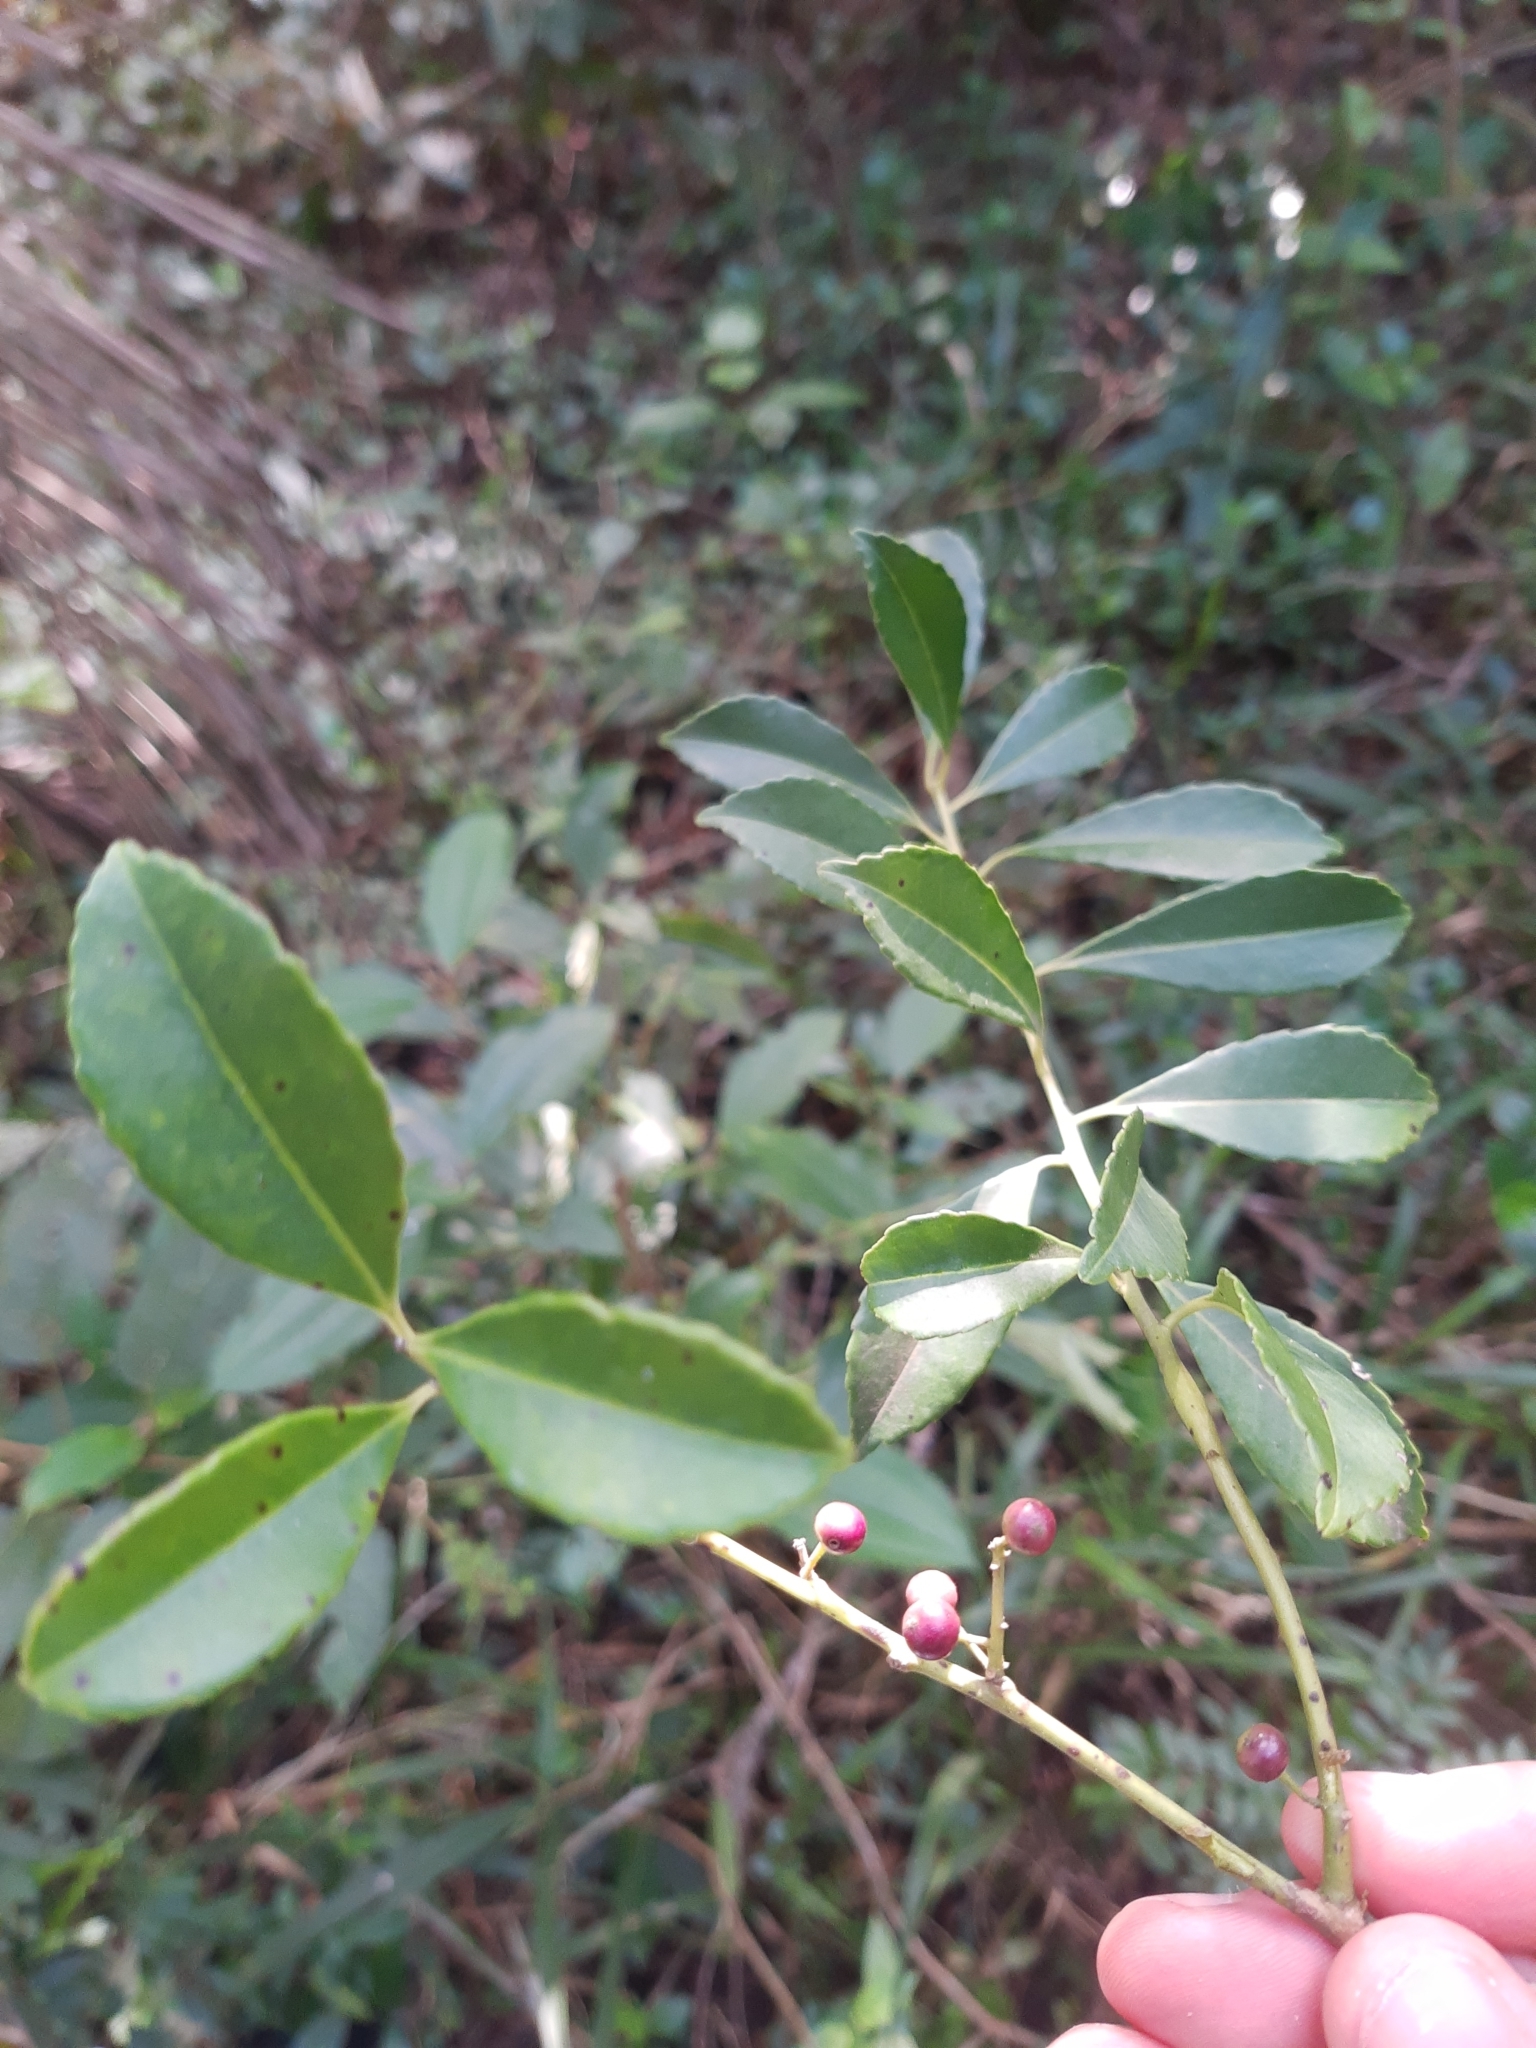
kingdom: Plantae
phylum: Tracheophyta
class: Magnoliopsida
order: Aquifoliales
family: Aquifoliaceae
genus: Ilex
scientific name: Ilex dumosa
